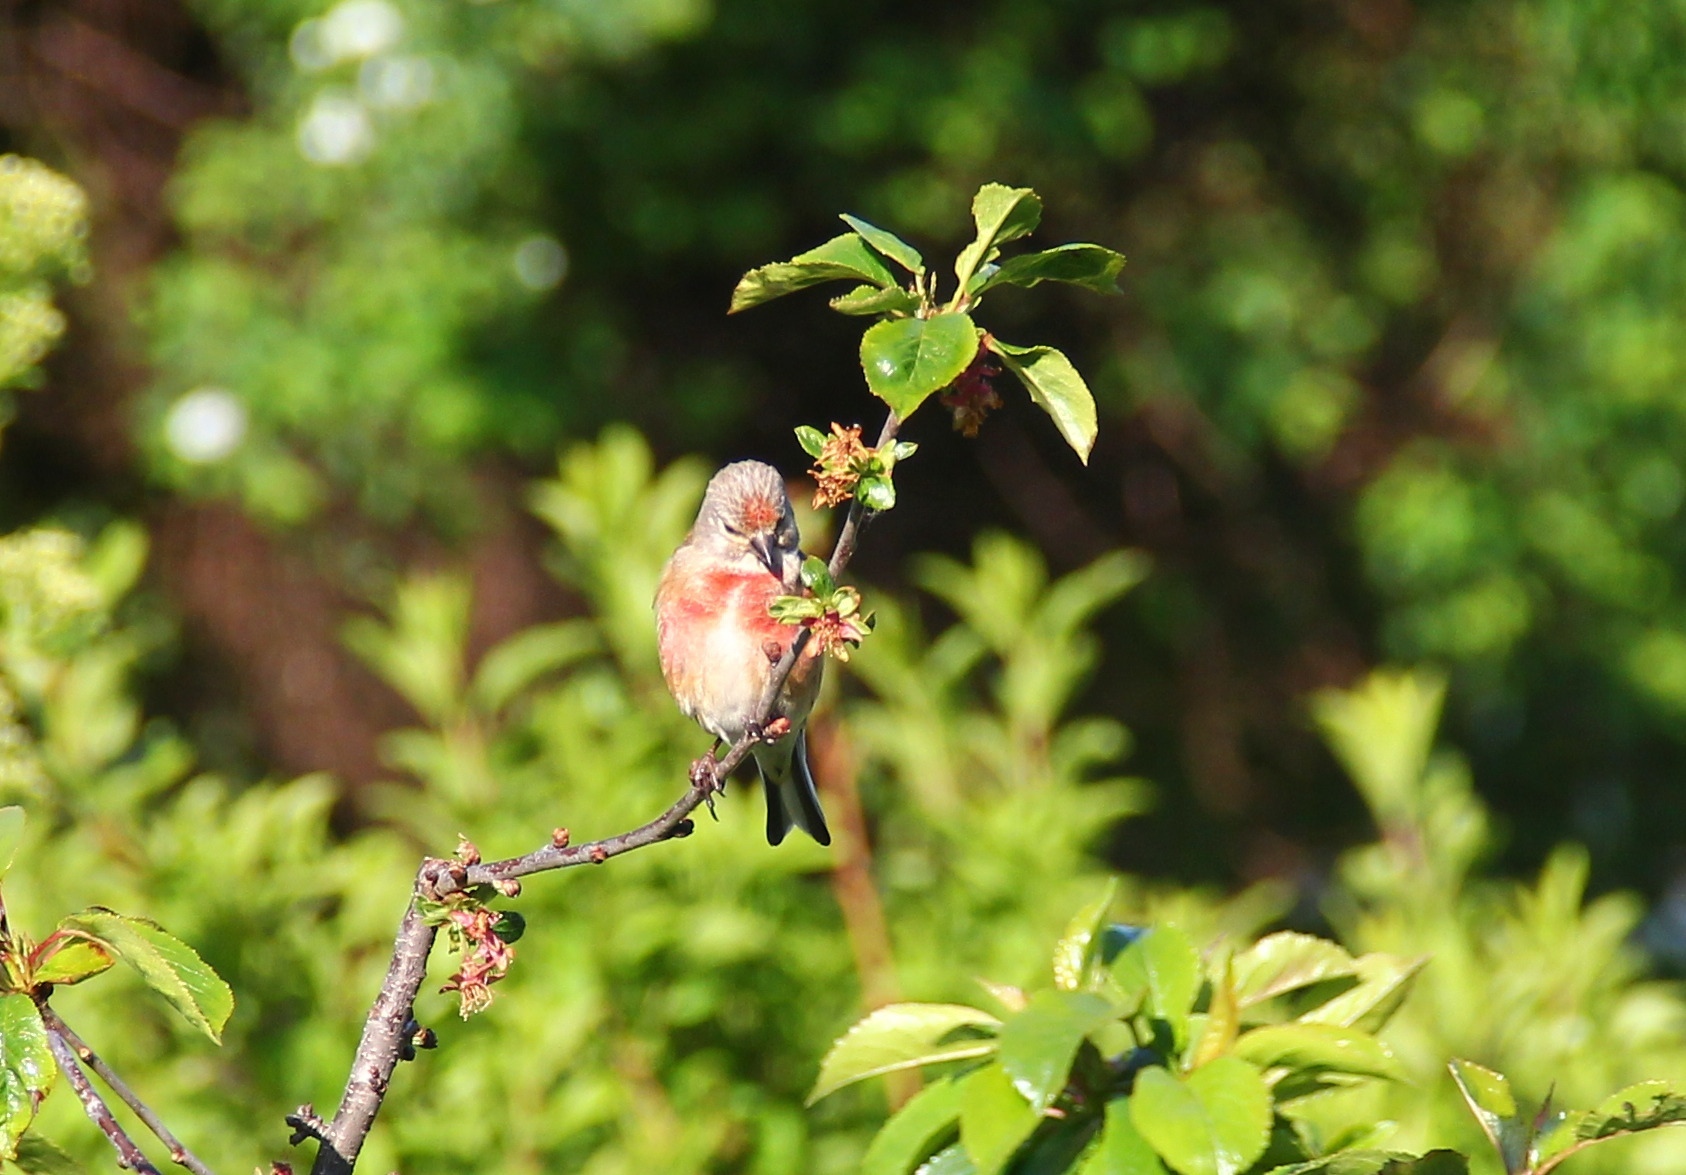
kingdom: Animalia
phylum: Chordata
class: Aves
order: Passeriformes
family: Fringillidae
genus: Linaria
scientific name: Linaria cannabina
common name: Common linnet
